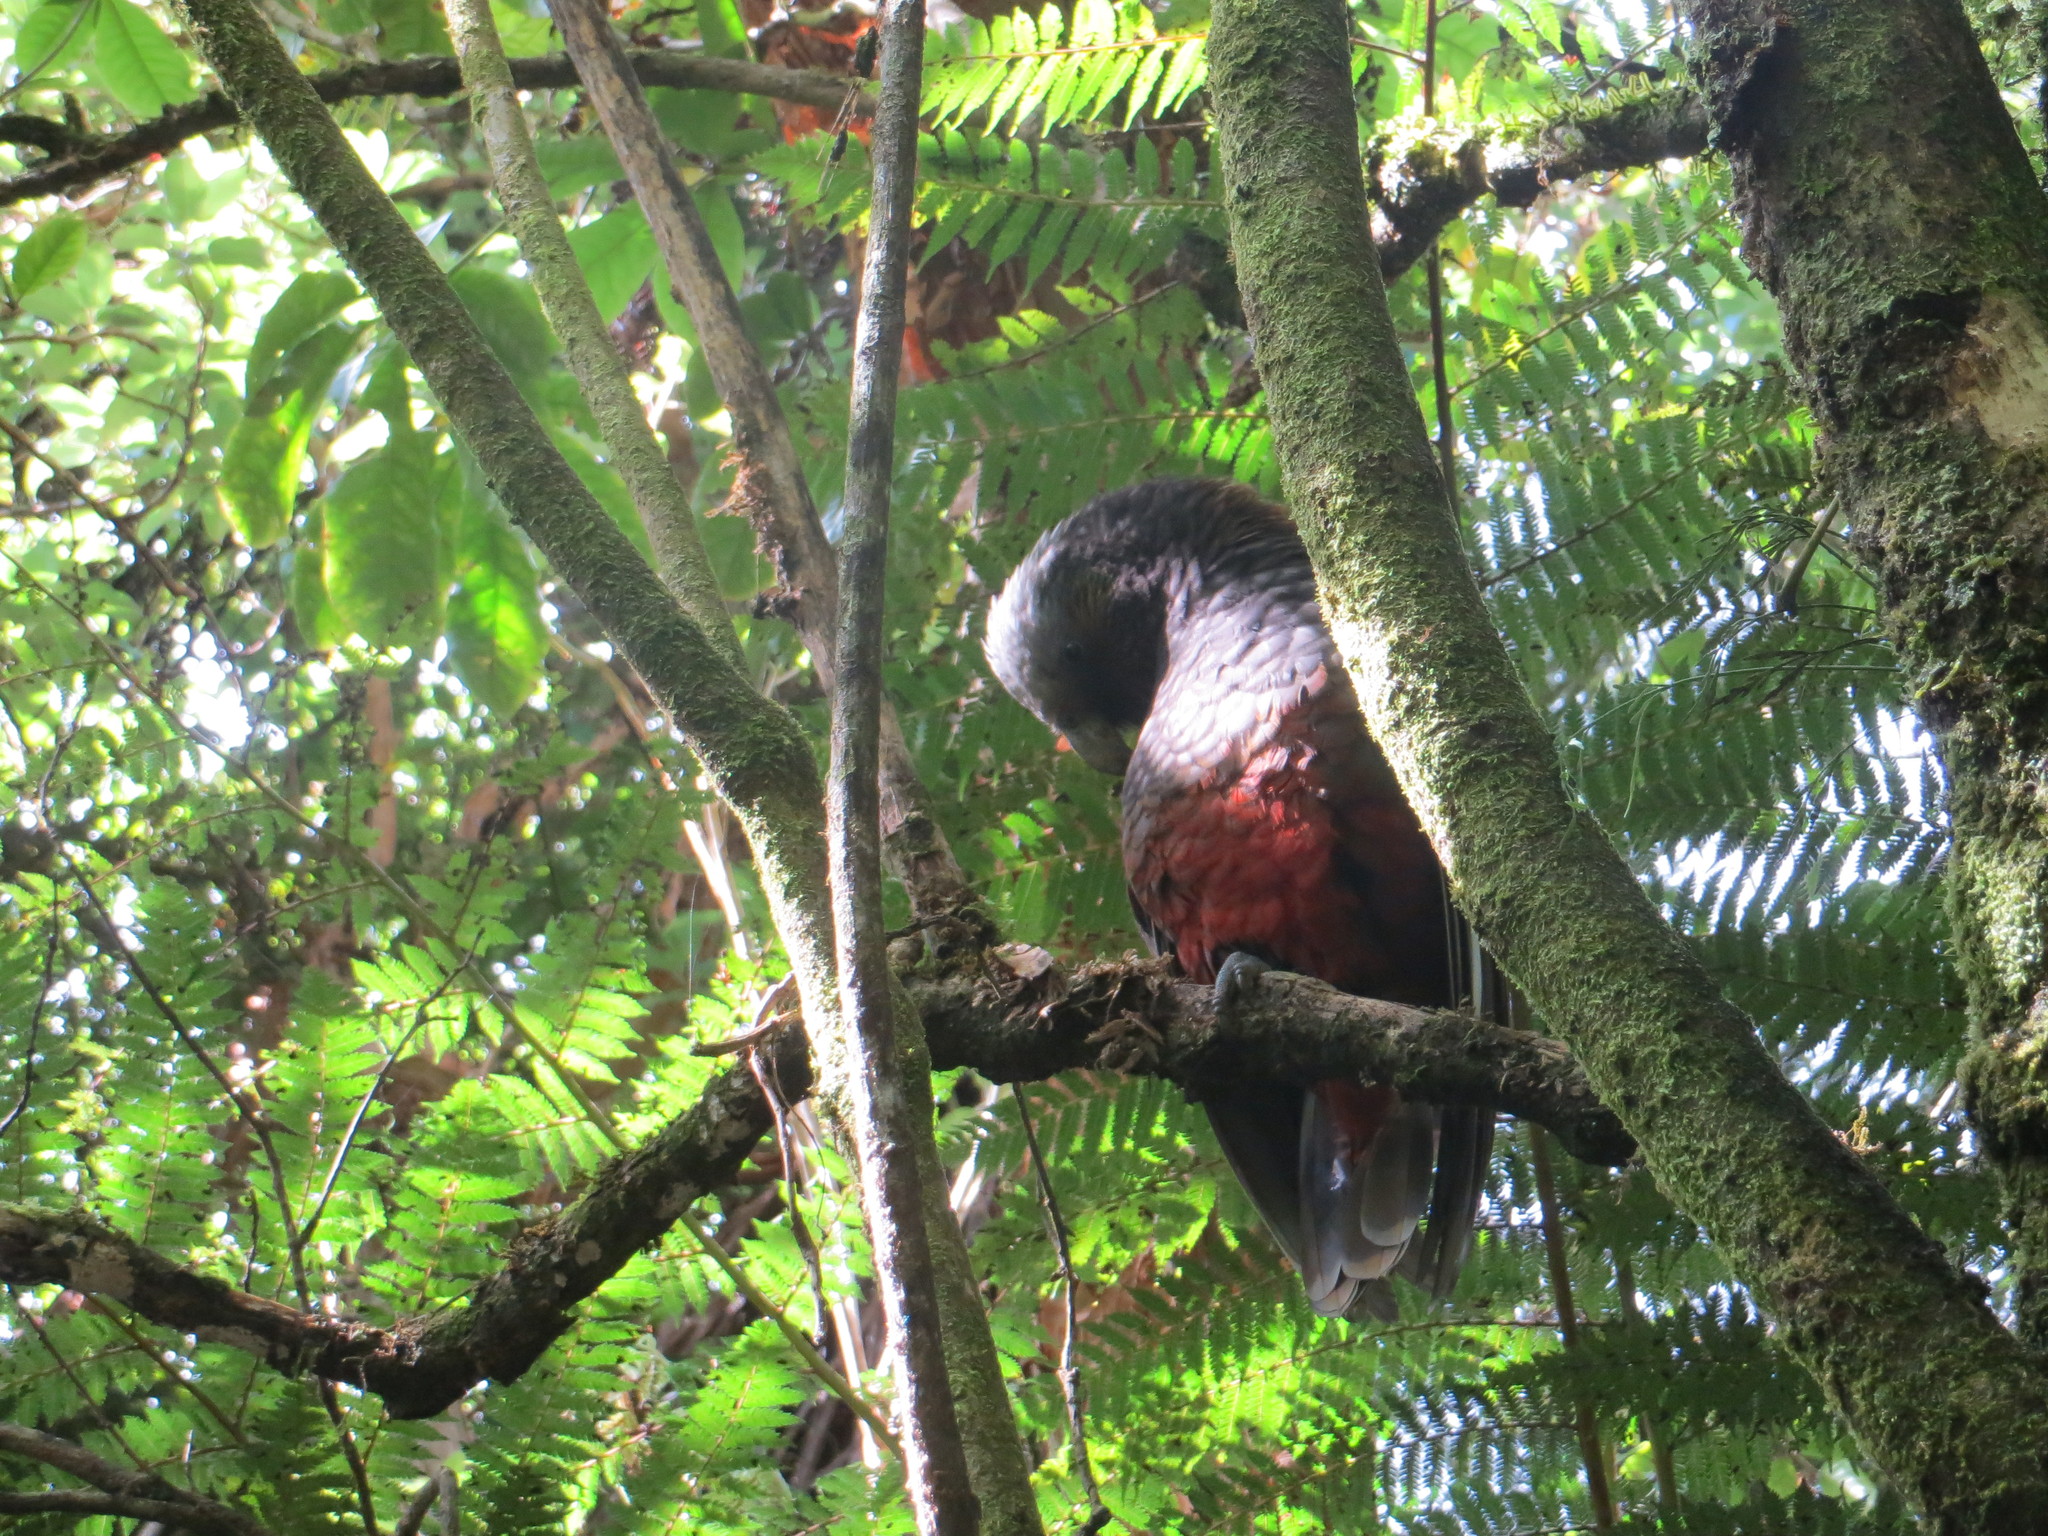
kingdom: Animalia
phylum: Chordata
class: Aves
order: Psittaciformes
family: Psittacidae
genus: Nestor
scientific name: Nestor meridionalis
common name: New zealand kaka
